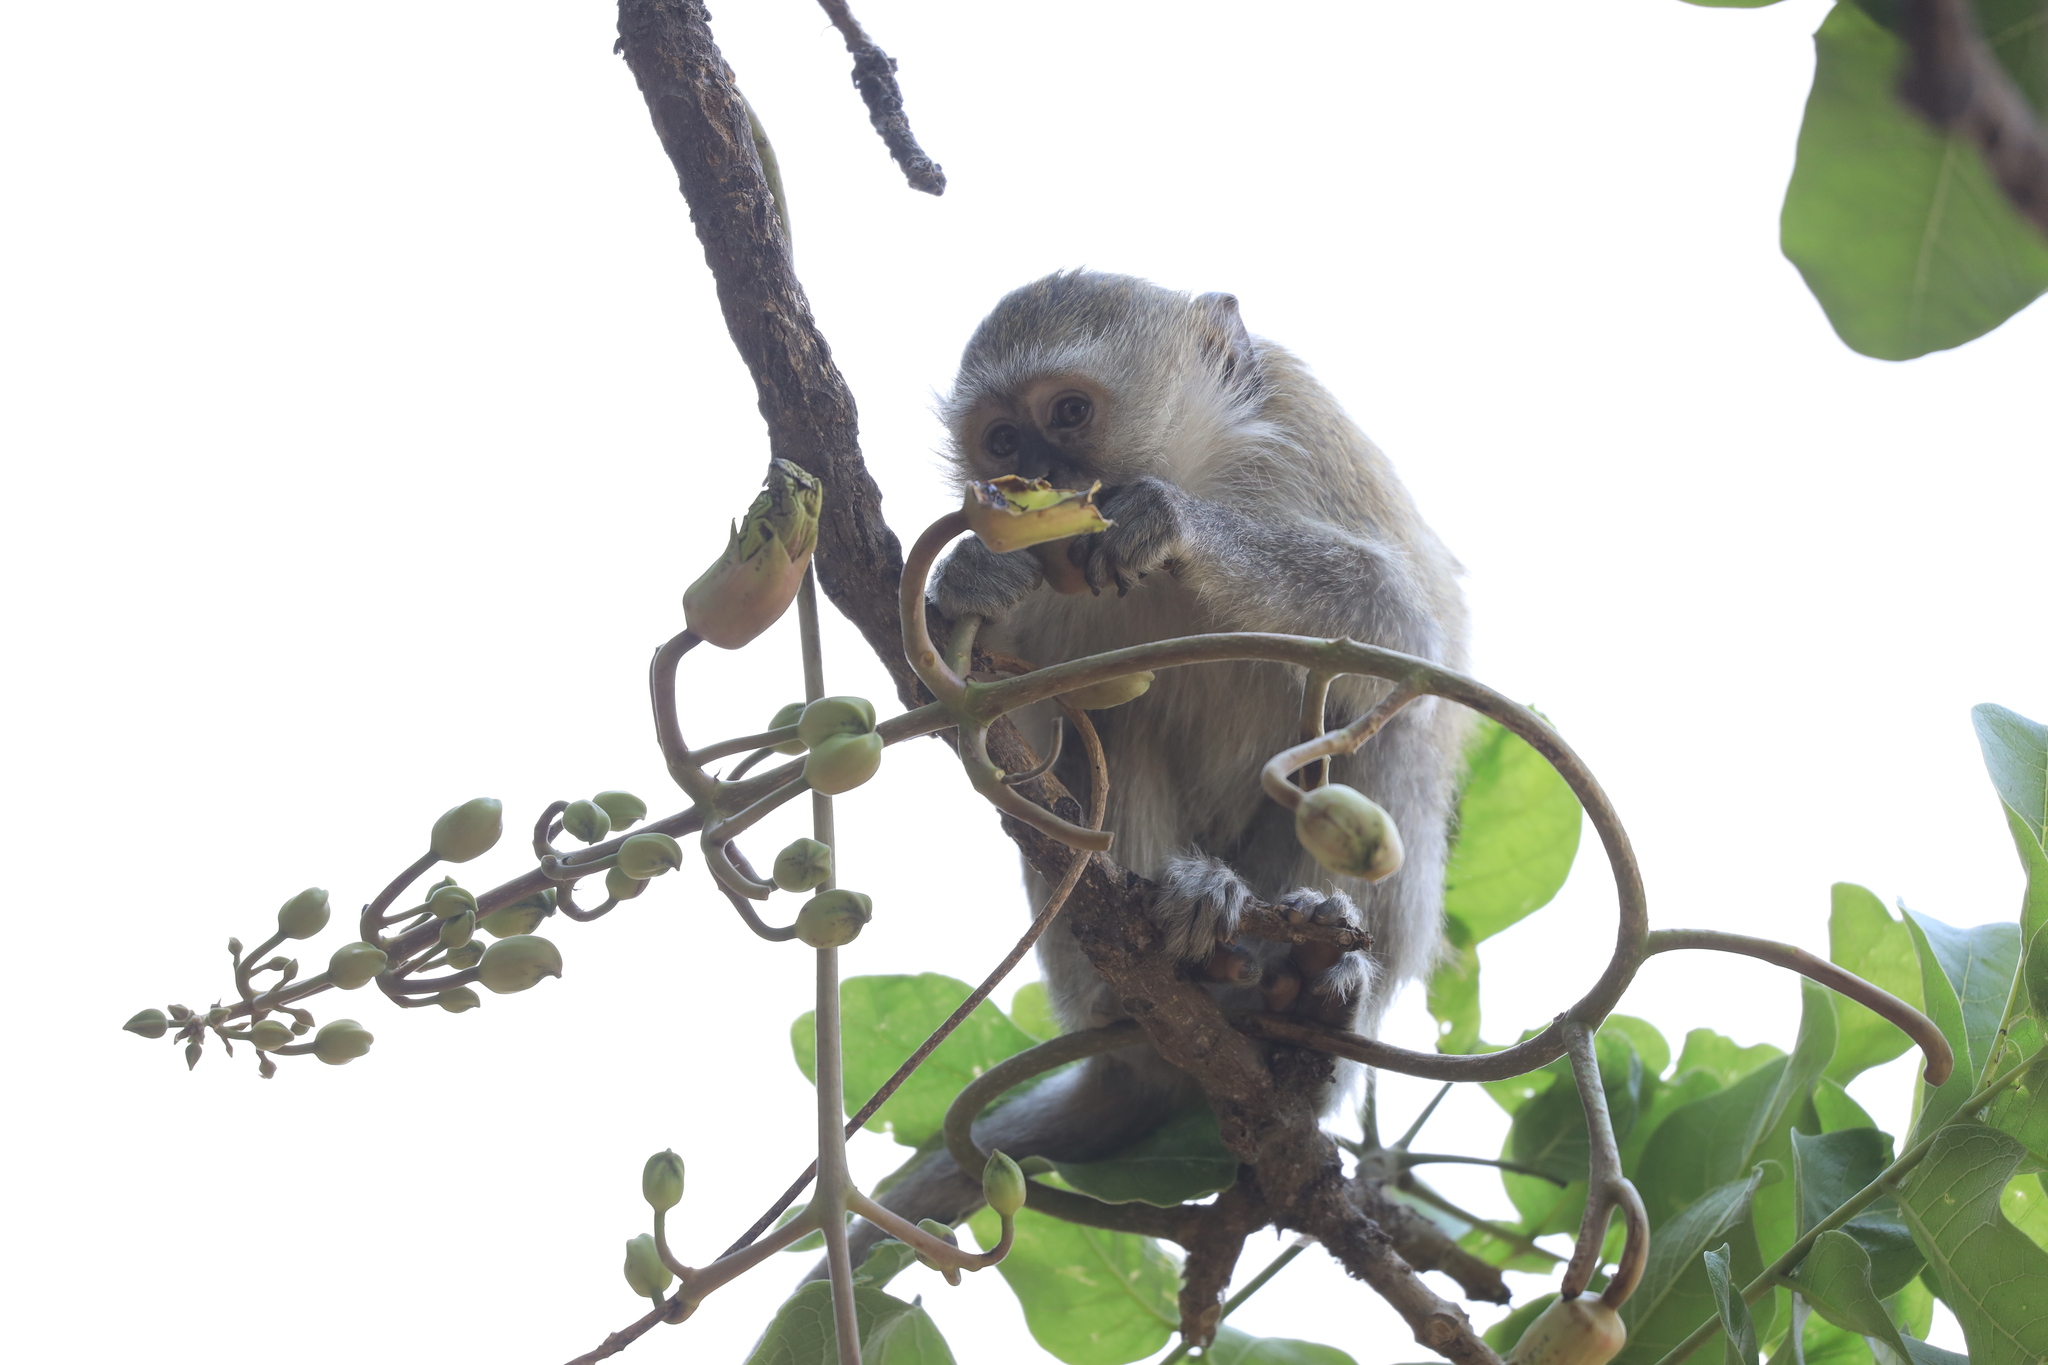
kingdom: Animalia
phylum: Chordata
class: Mammalia
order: Primates
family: Cercopithecidae
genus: Chlorocebus
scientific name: Chlorocebus pygerythrus
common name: Vervet monkey
